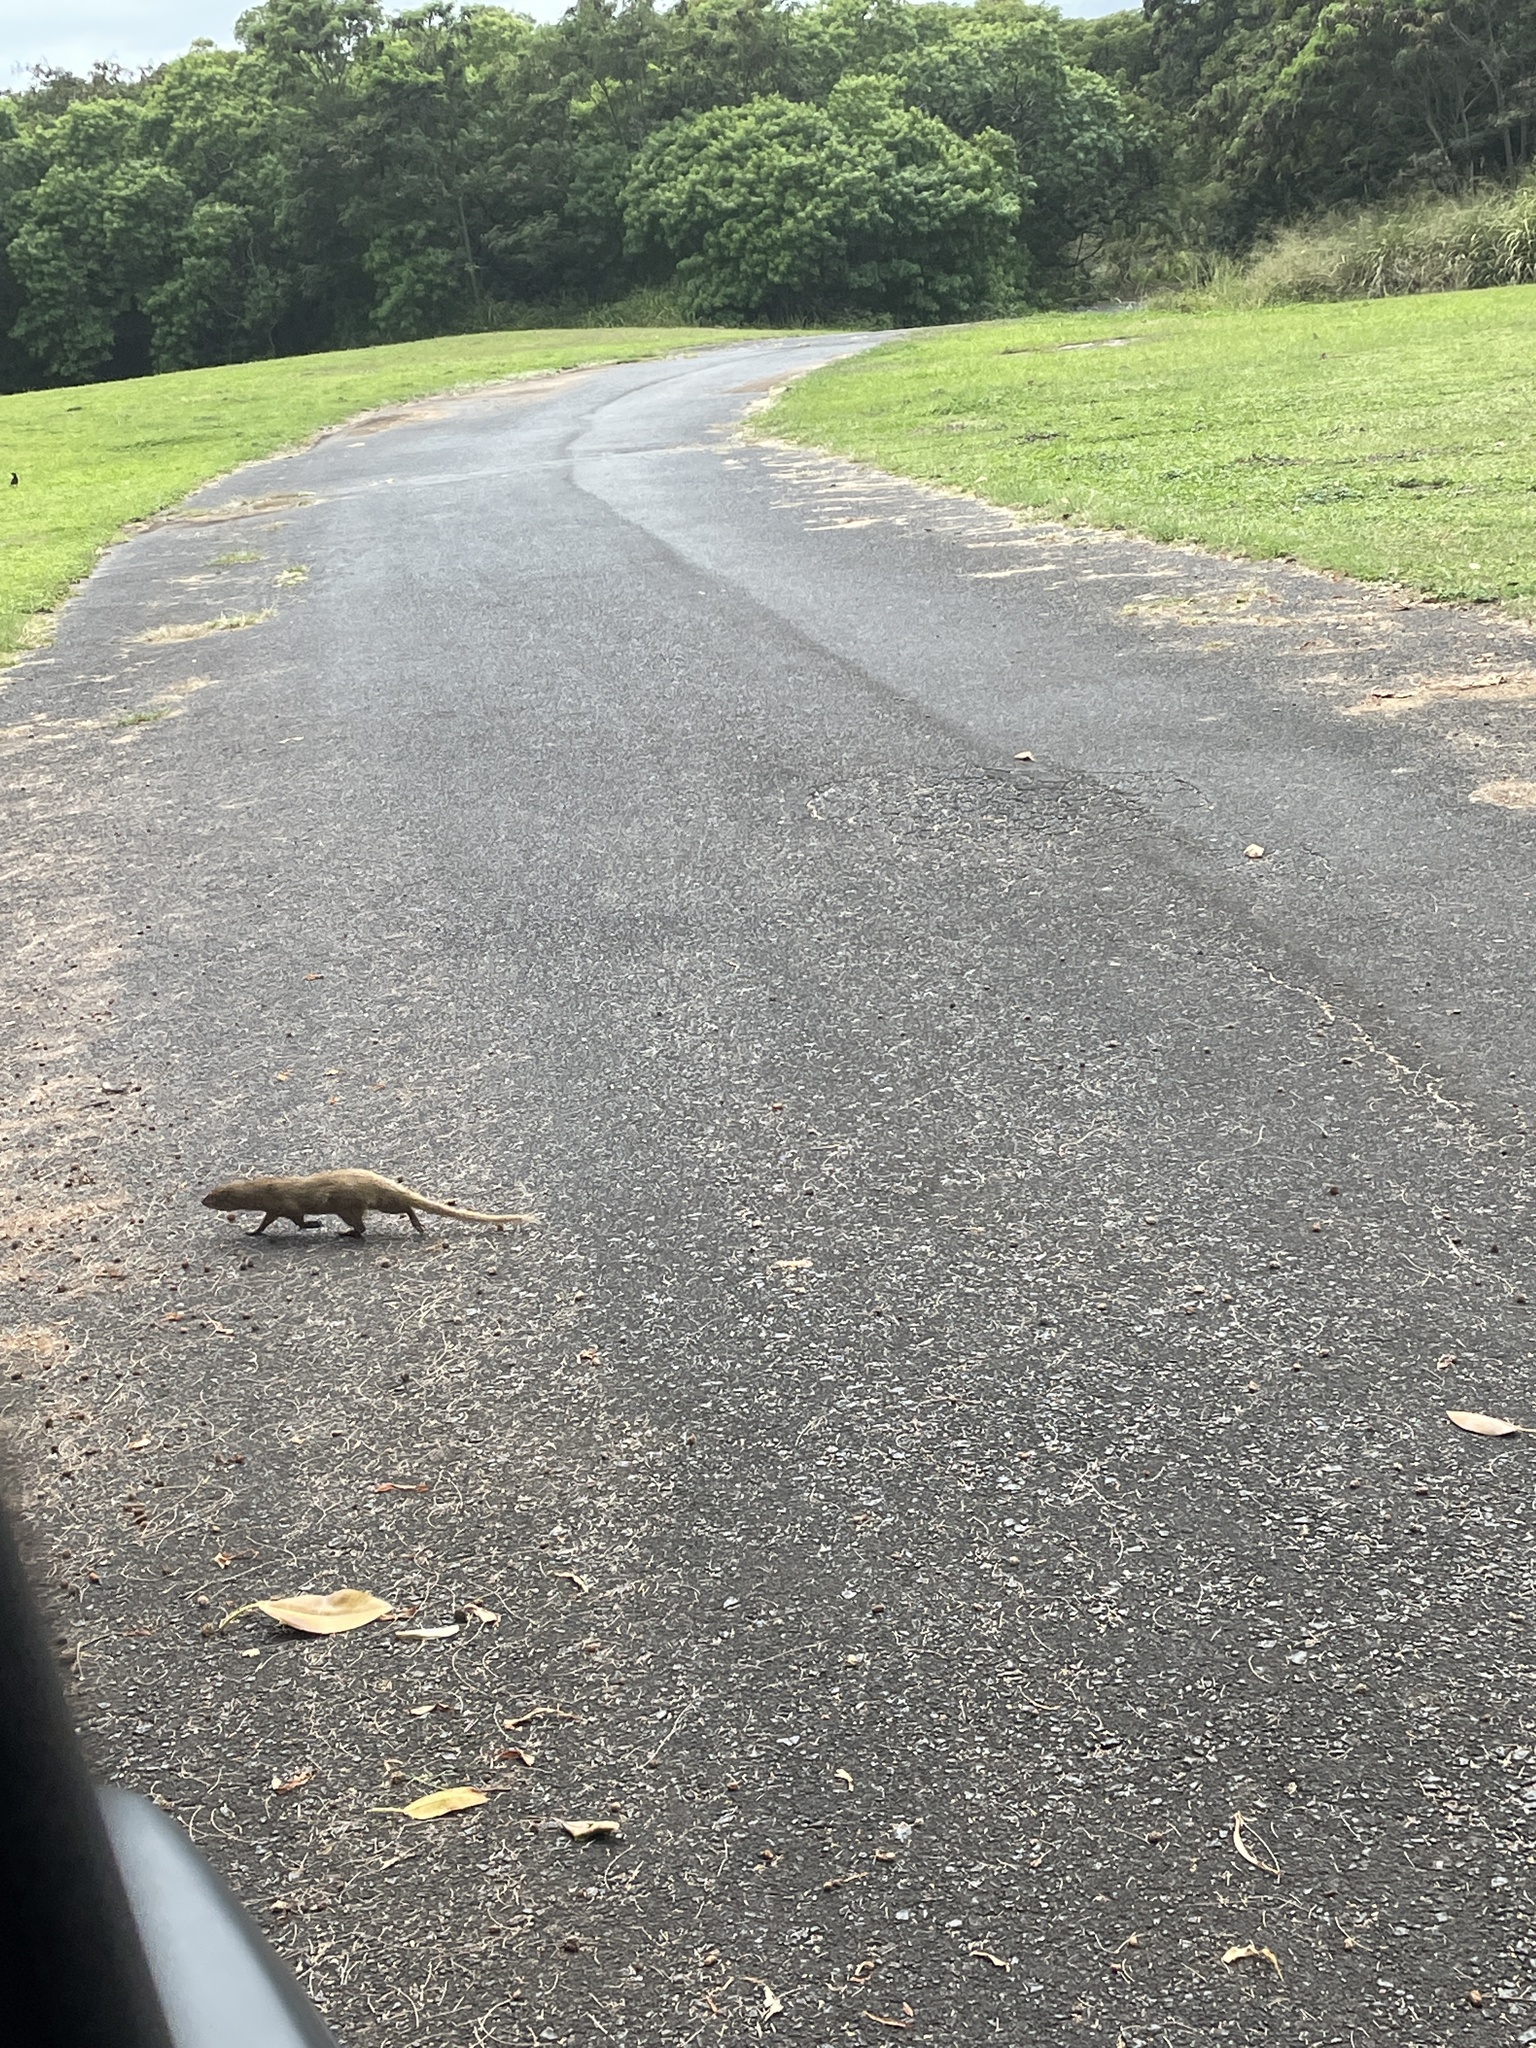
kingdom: Animalia
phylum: Chordata
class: Mammalia
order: Carnivora
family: Herpestidae
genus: Herpestes
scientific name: Herpestes javanicus
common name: Small asian mongoose
